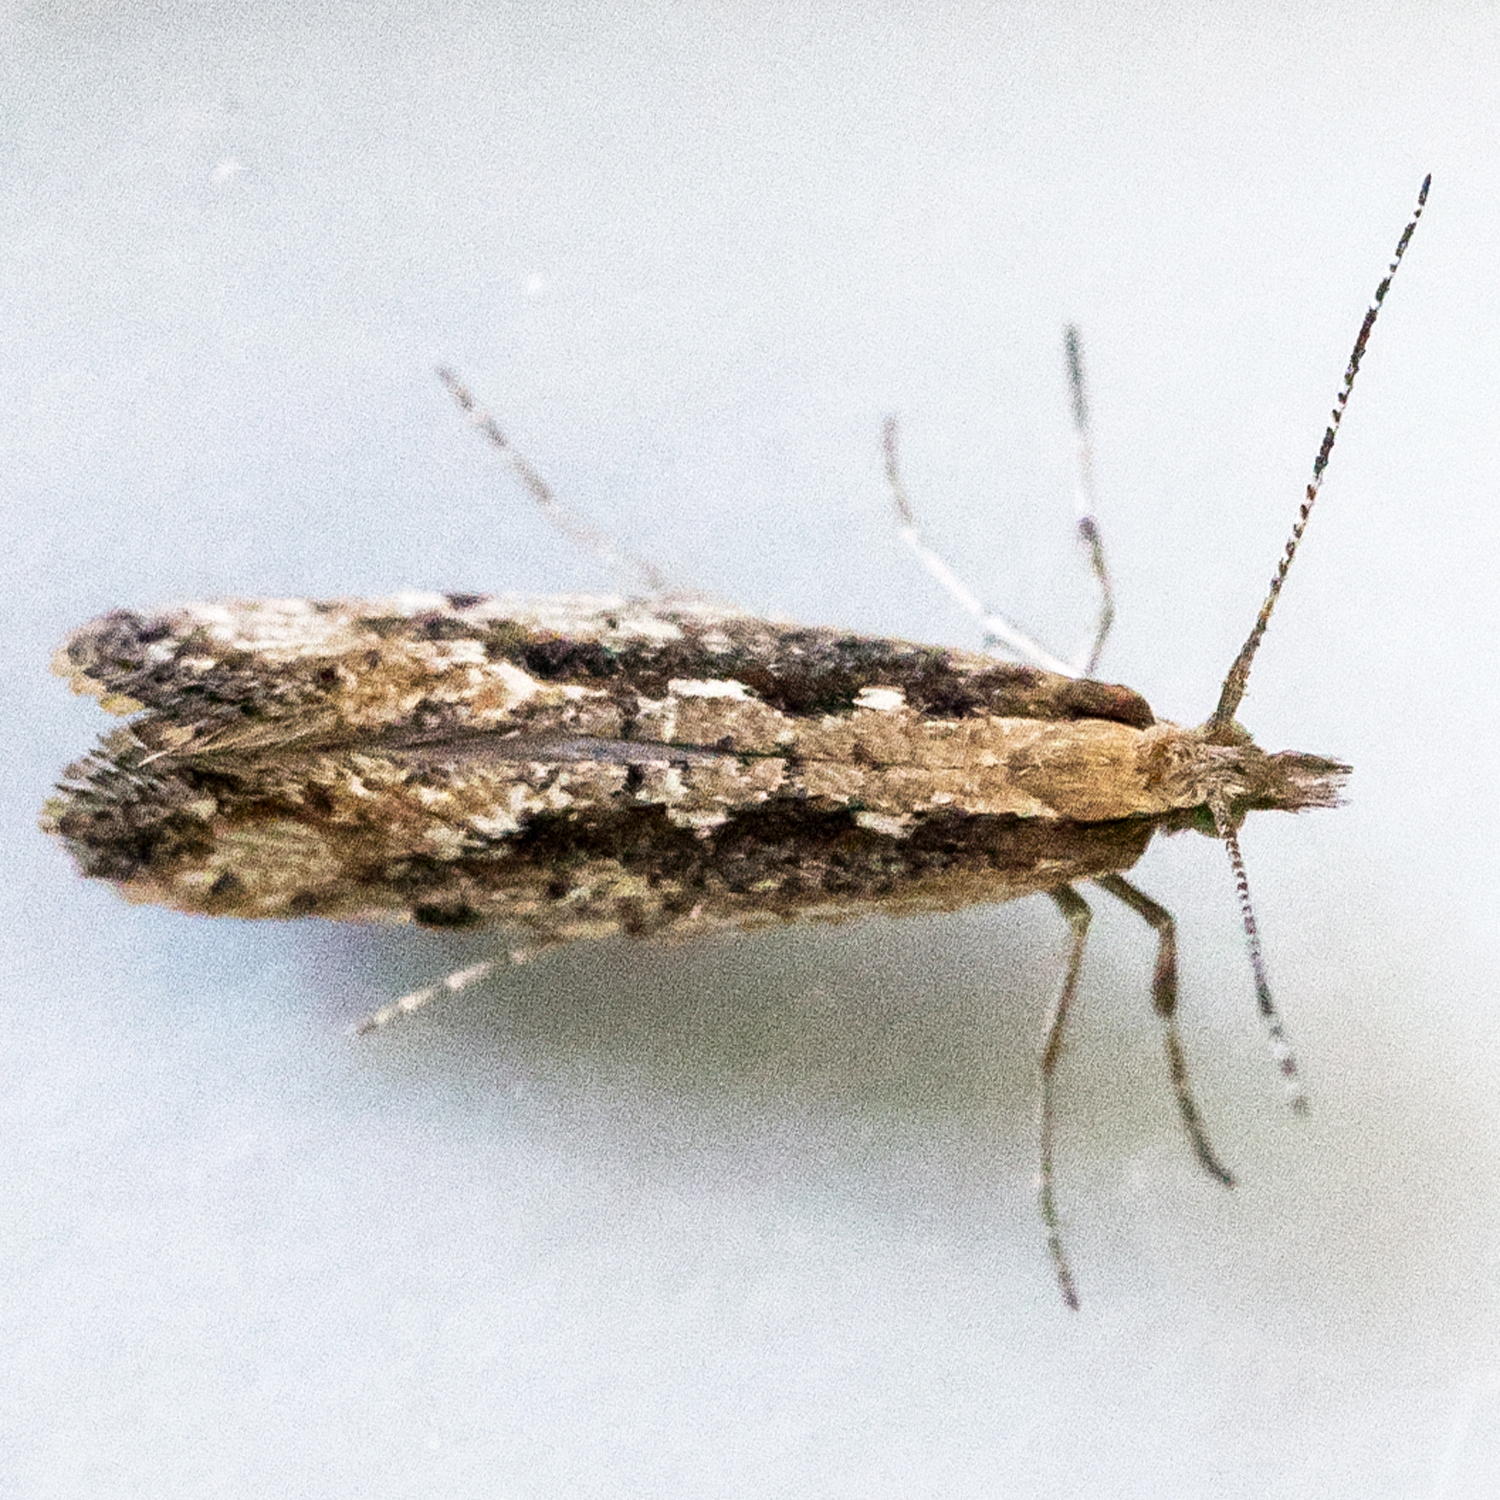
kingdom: Animalia
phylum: Arthropoda
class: Insecta
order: Lepidoptera
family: Plutellidae
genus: Plutella
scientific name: Plutella xylostella
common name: Diamond-back moth
